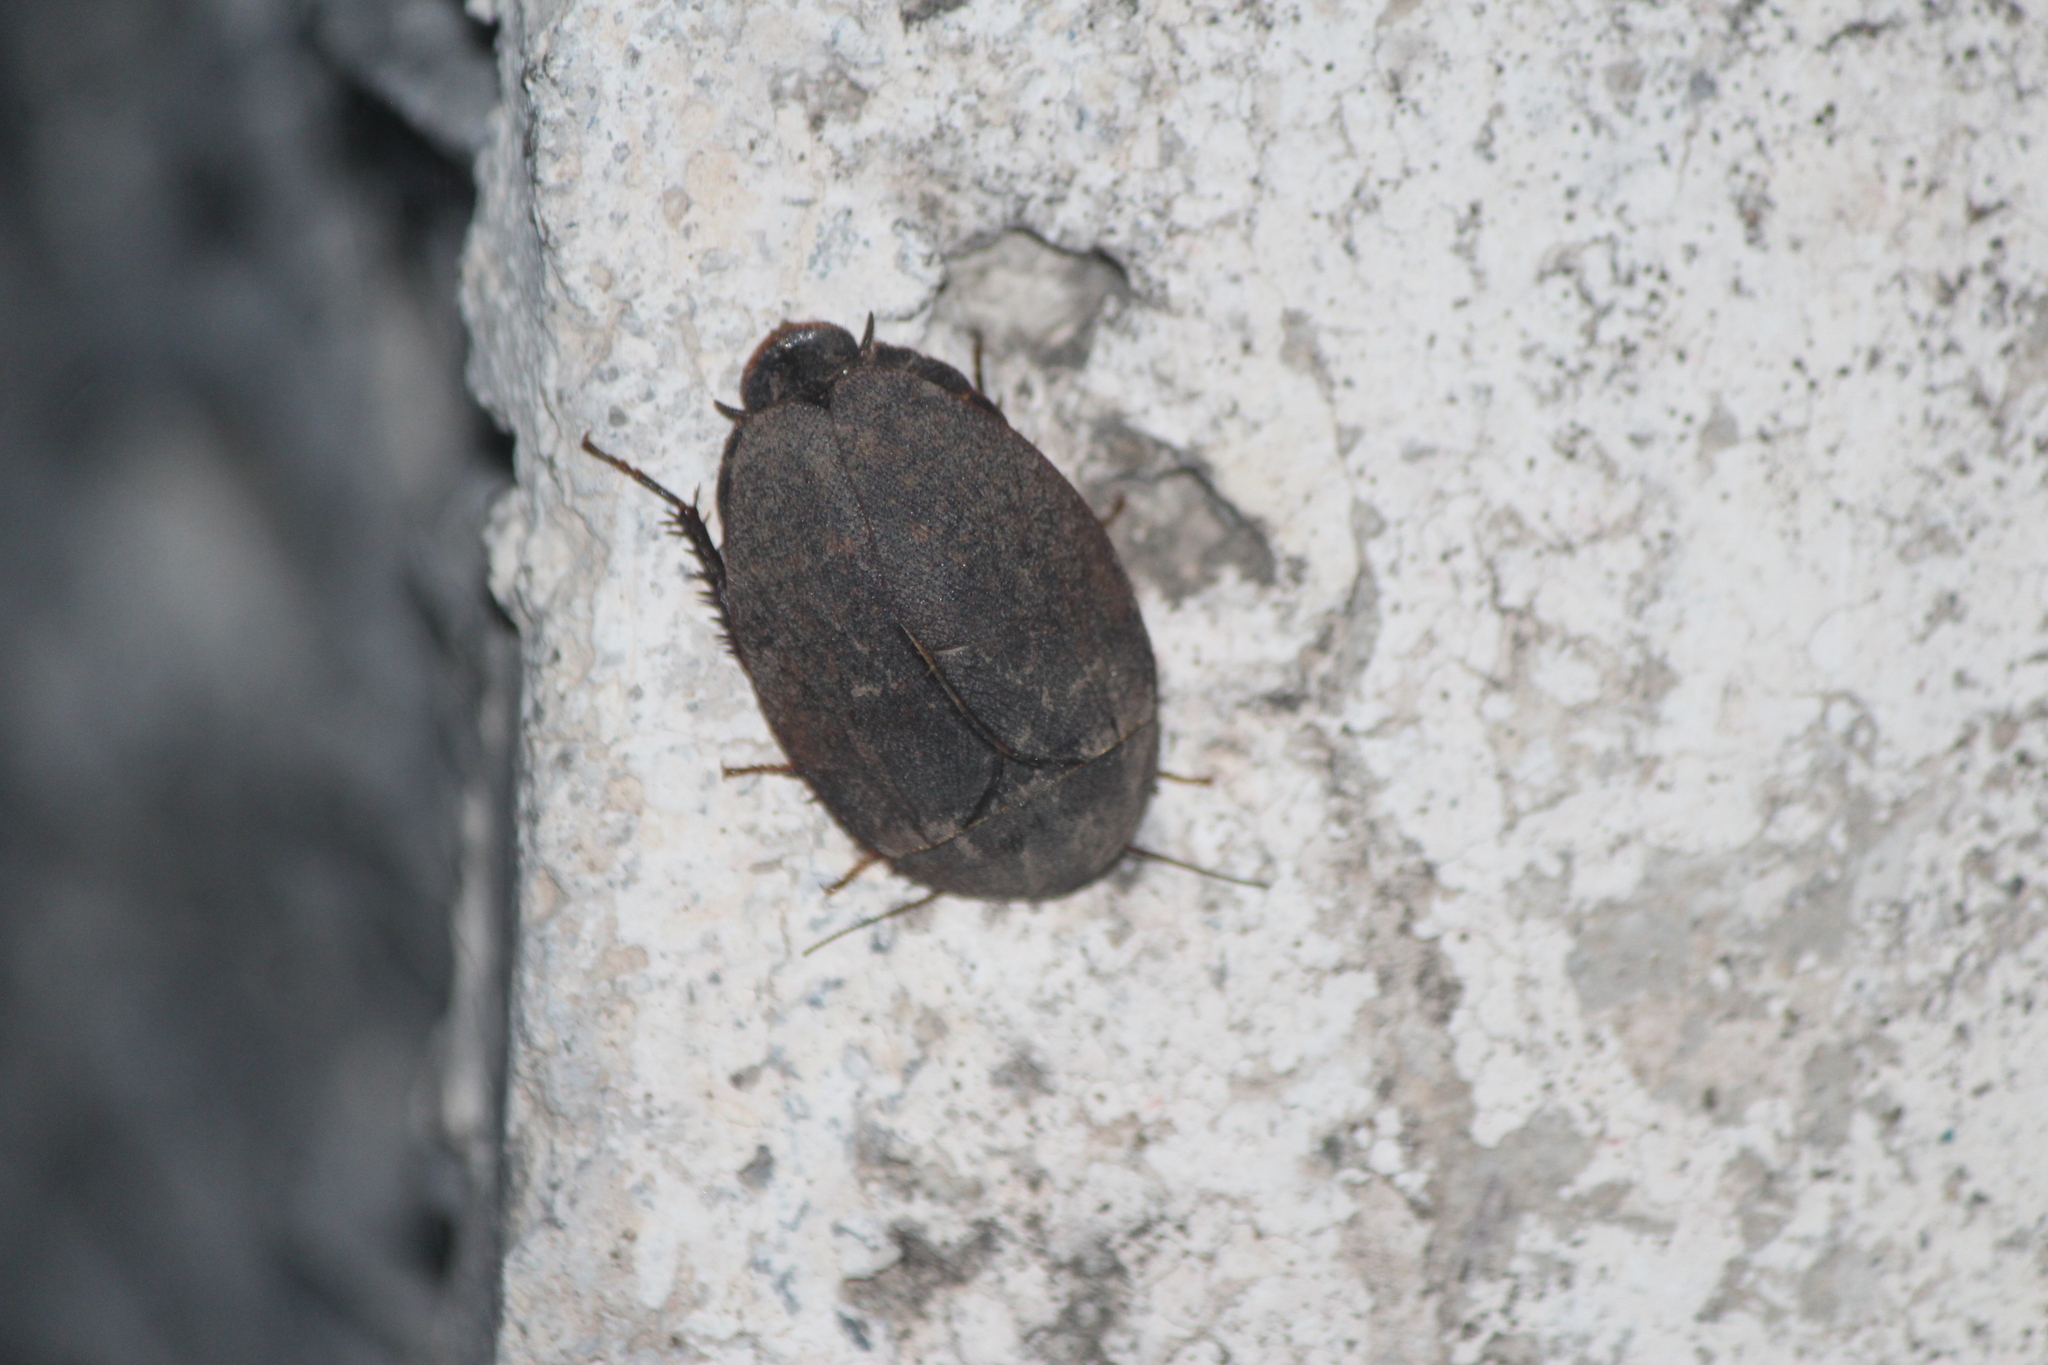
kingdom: Animalia
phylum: Arthropoda
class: Insecta
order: Blattodea
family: Corydiidae
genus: Homoeogamia
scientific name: Homoeogamia mexicana
